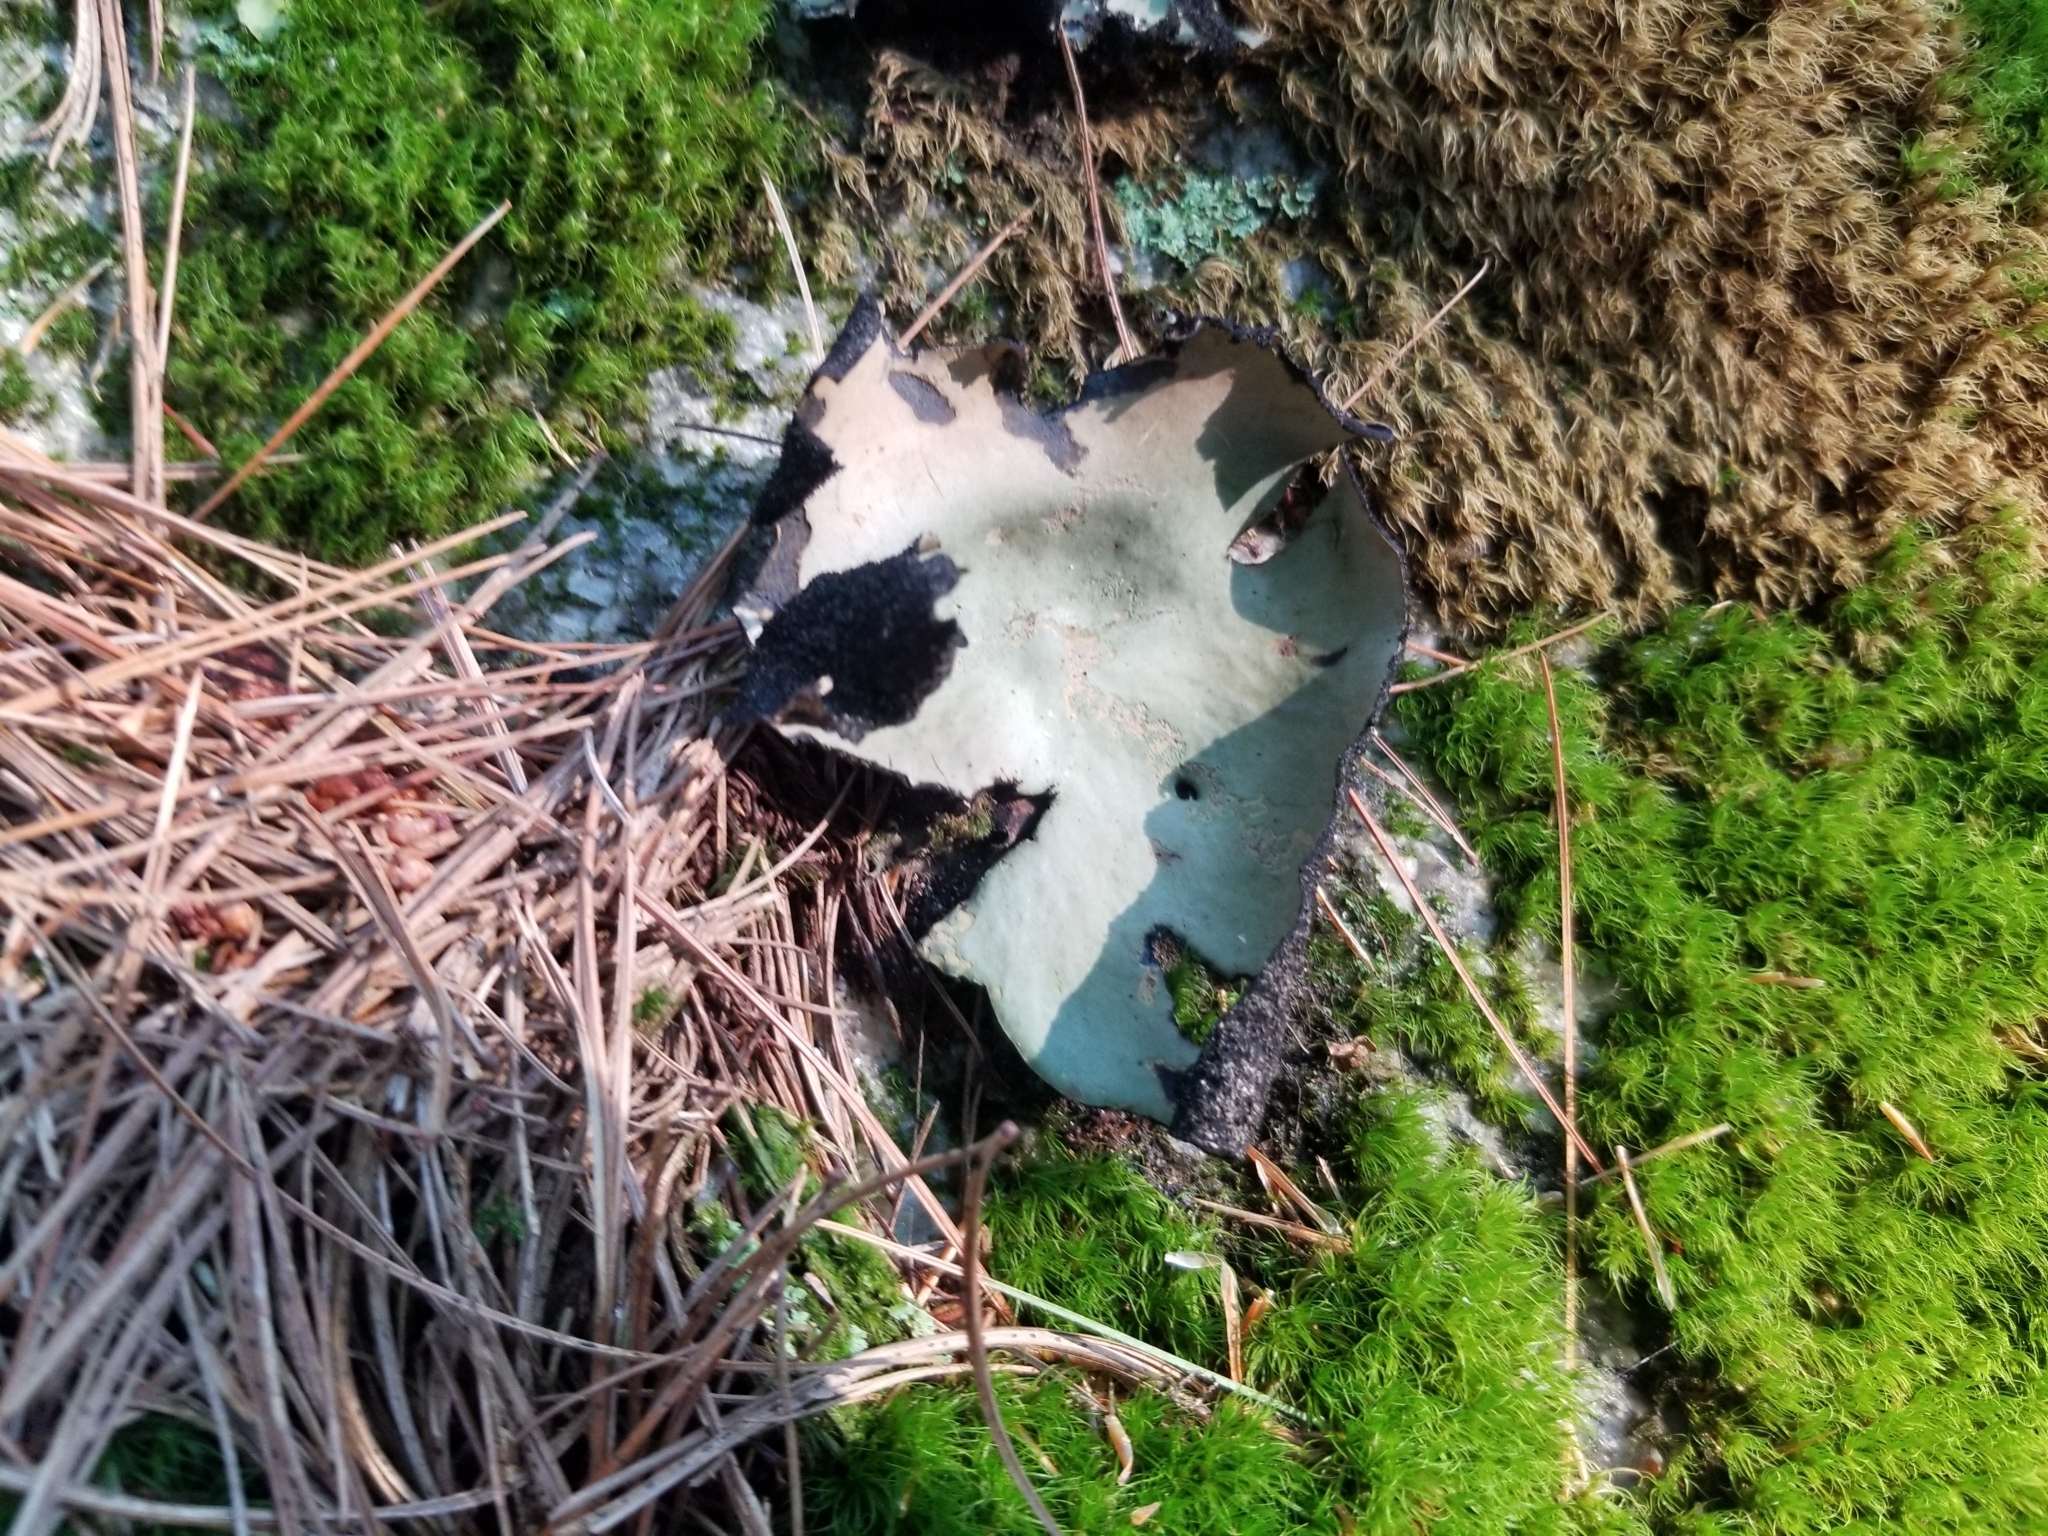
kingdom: Fungi
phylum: Ascomycota
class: Lecanoromycetes
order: Umbilicariales
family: Umbilicariaceae
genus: Umbilicaria
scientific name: Umbilicaria mammulata
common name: Smooth rock tripe
